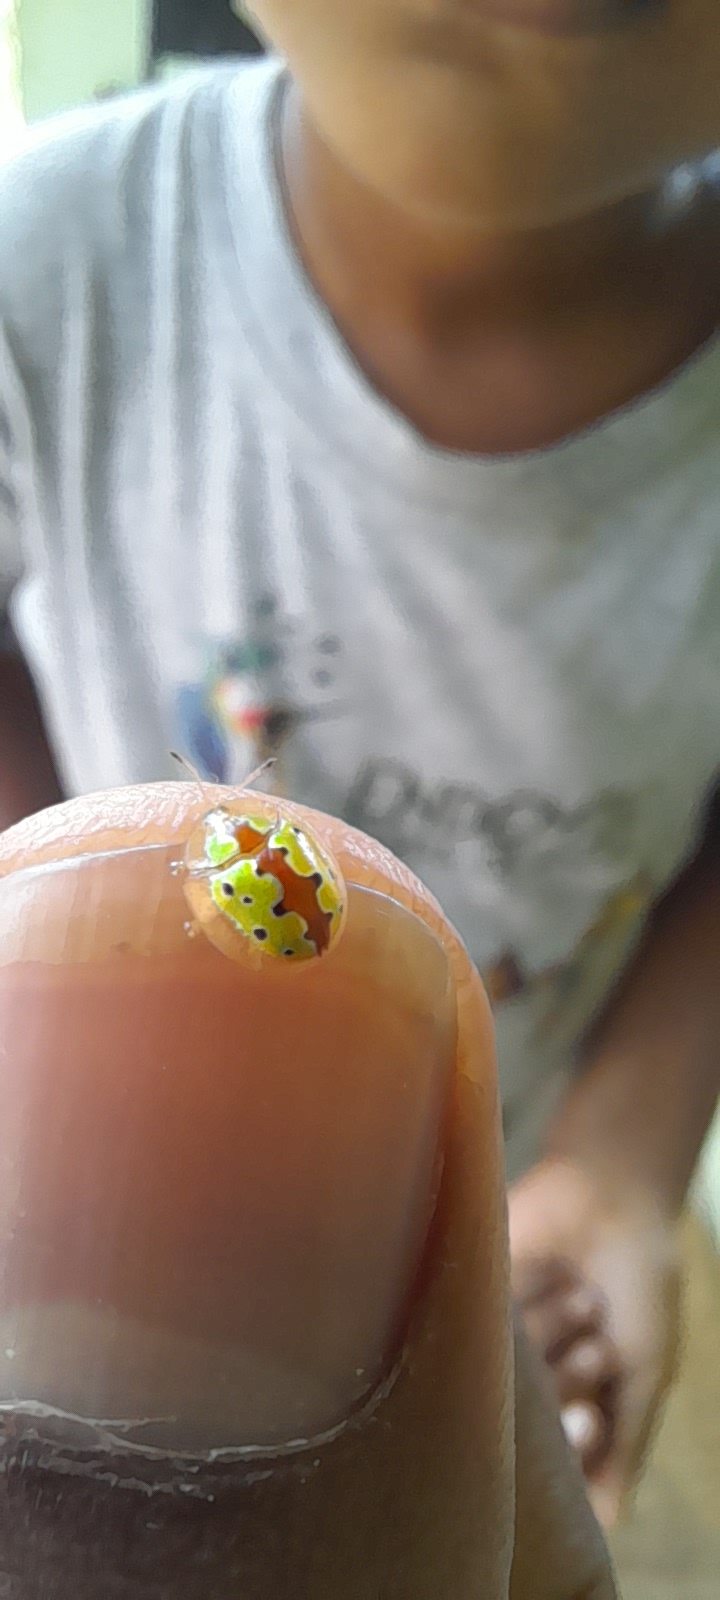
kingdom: Animalia
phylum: Arthropoda
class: Insecta
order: Coleoptera
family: Chrysomelidae
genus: Chiridopsis
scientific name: Chiridopsis marginata
